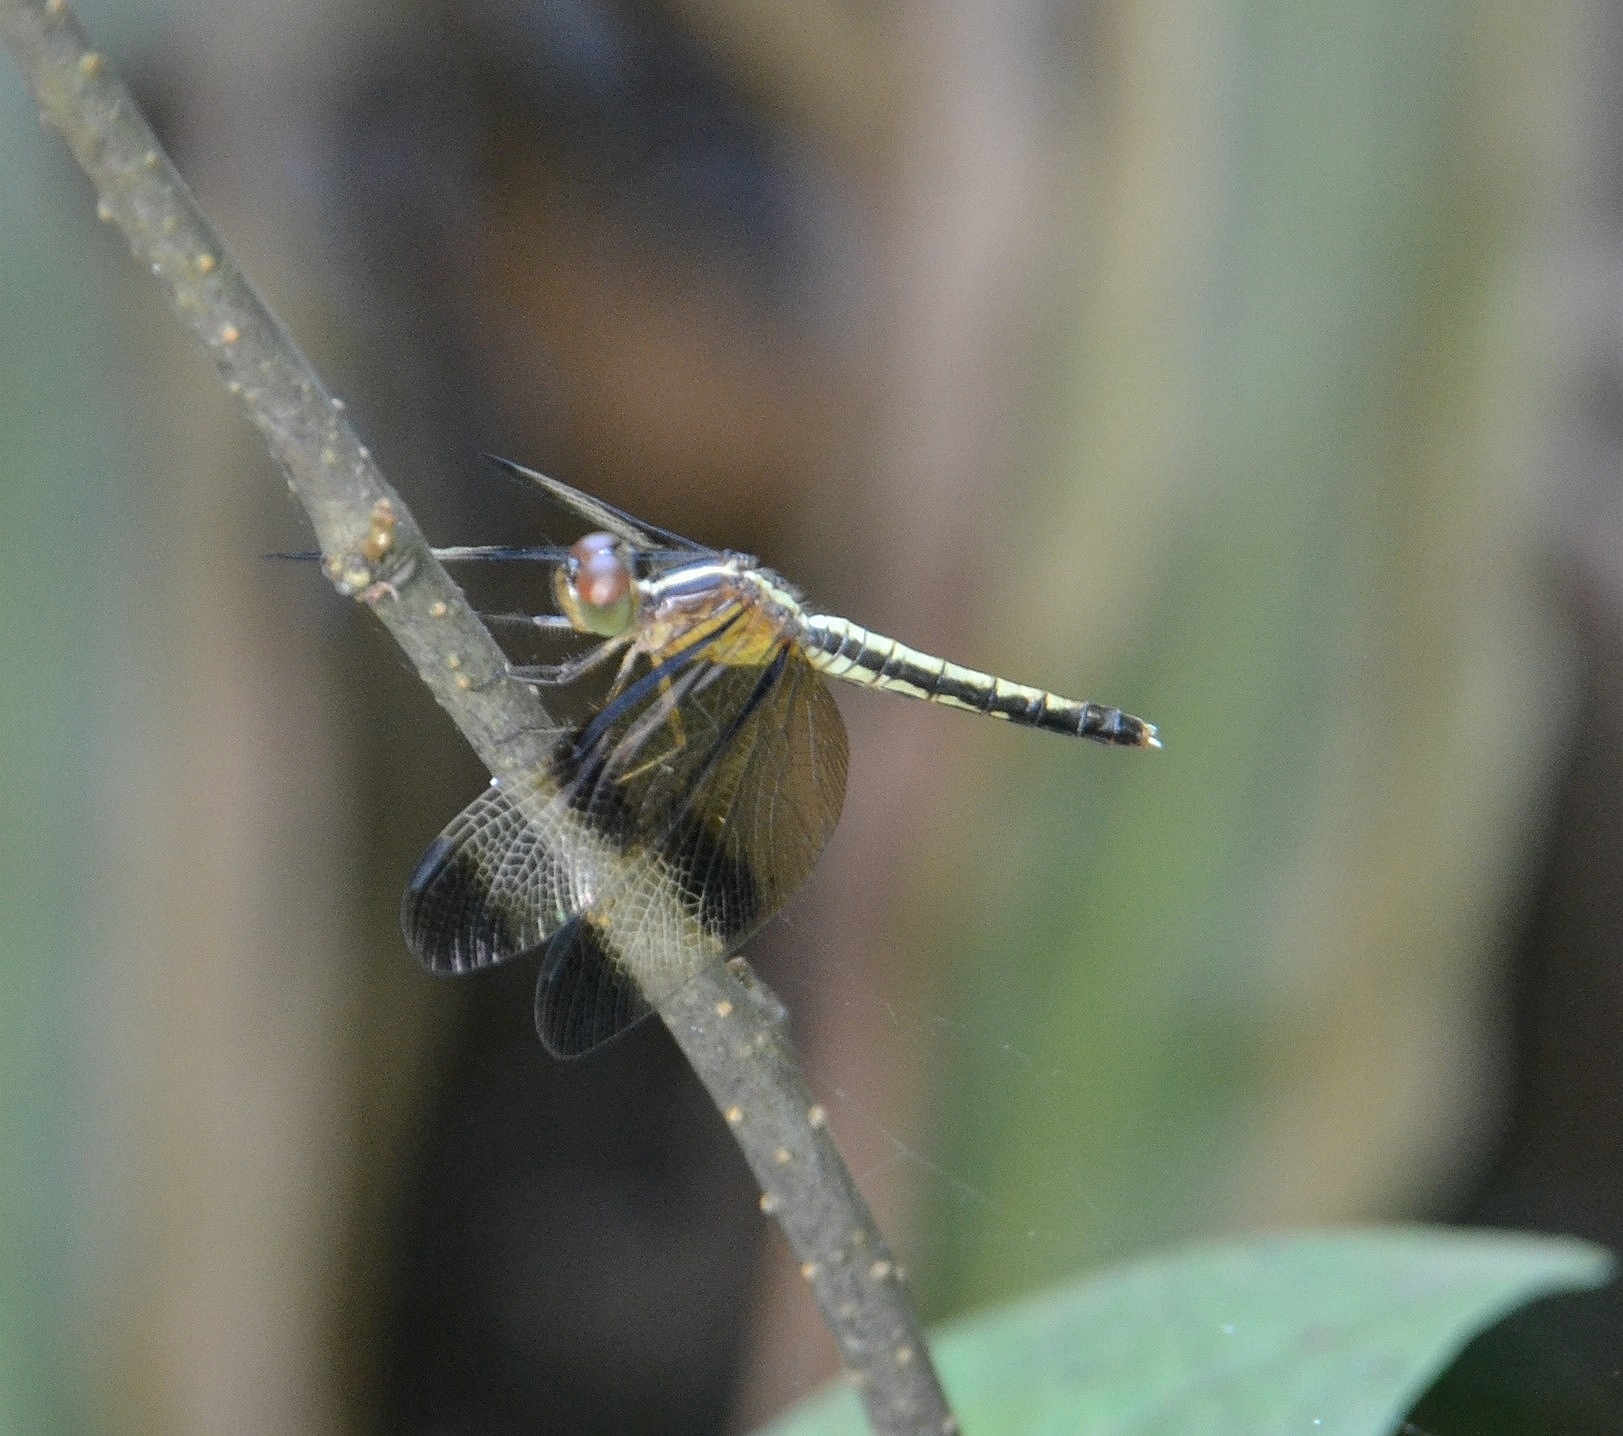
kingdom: Animalia
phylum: Arthropoda
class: Insecta
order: Odonata
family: Libellulidae
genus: Neurothemis
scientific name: Neurothemis tullia
